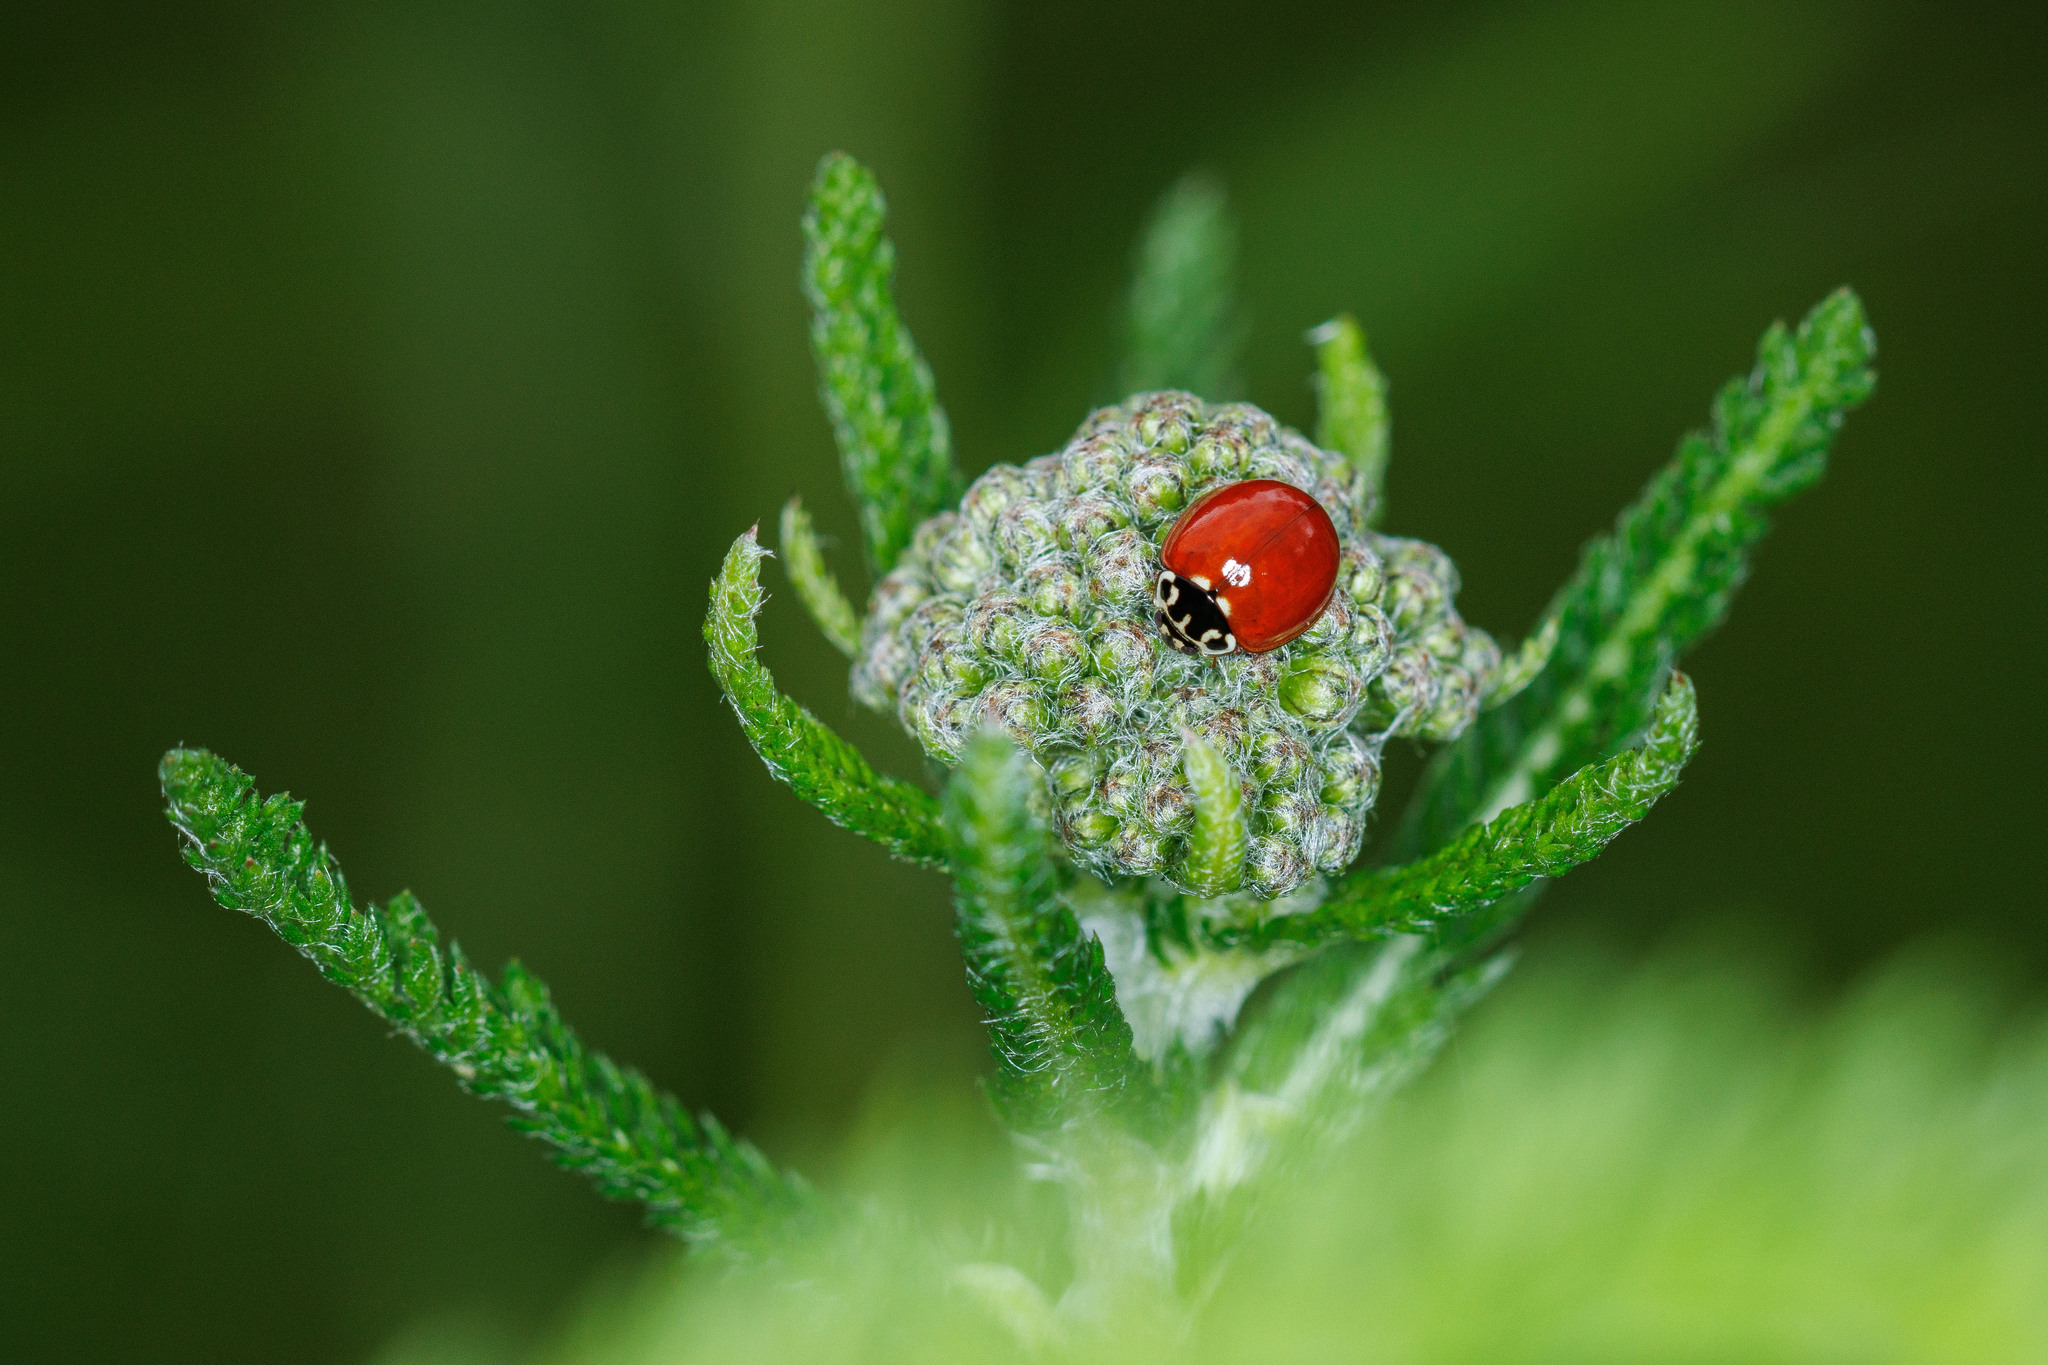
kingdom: Animalia
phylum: Arthropoda
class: Insecta
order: Coleoptera
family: Coccinellidae
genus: Cycloneda
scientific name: Cycloneda polita
